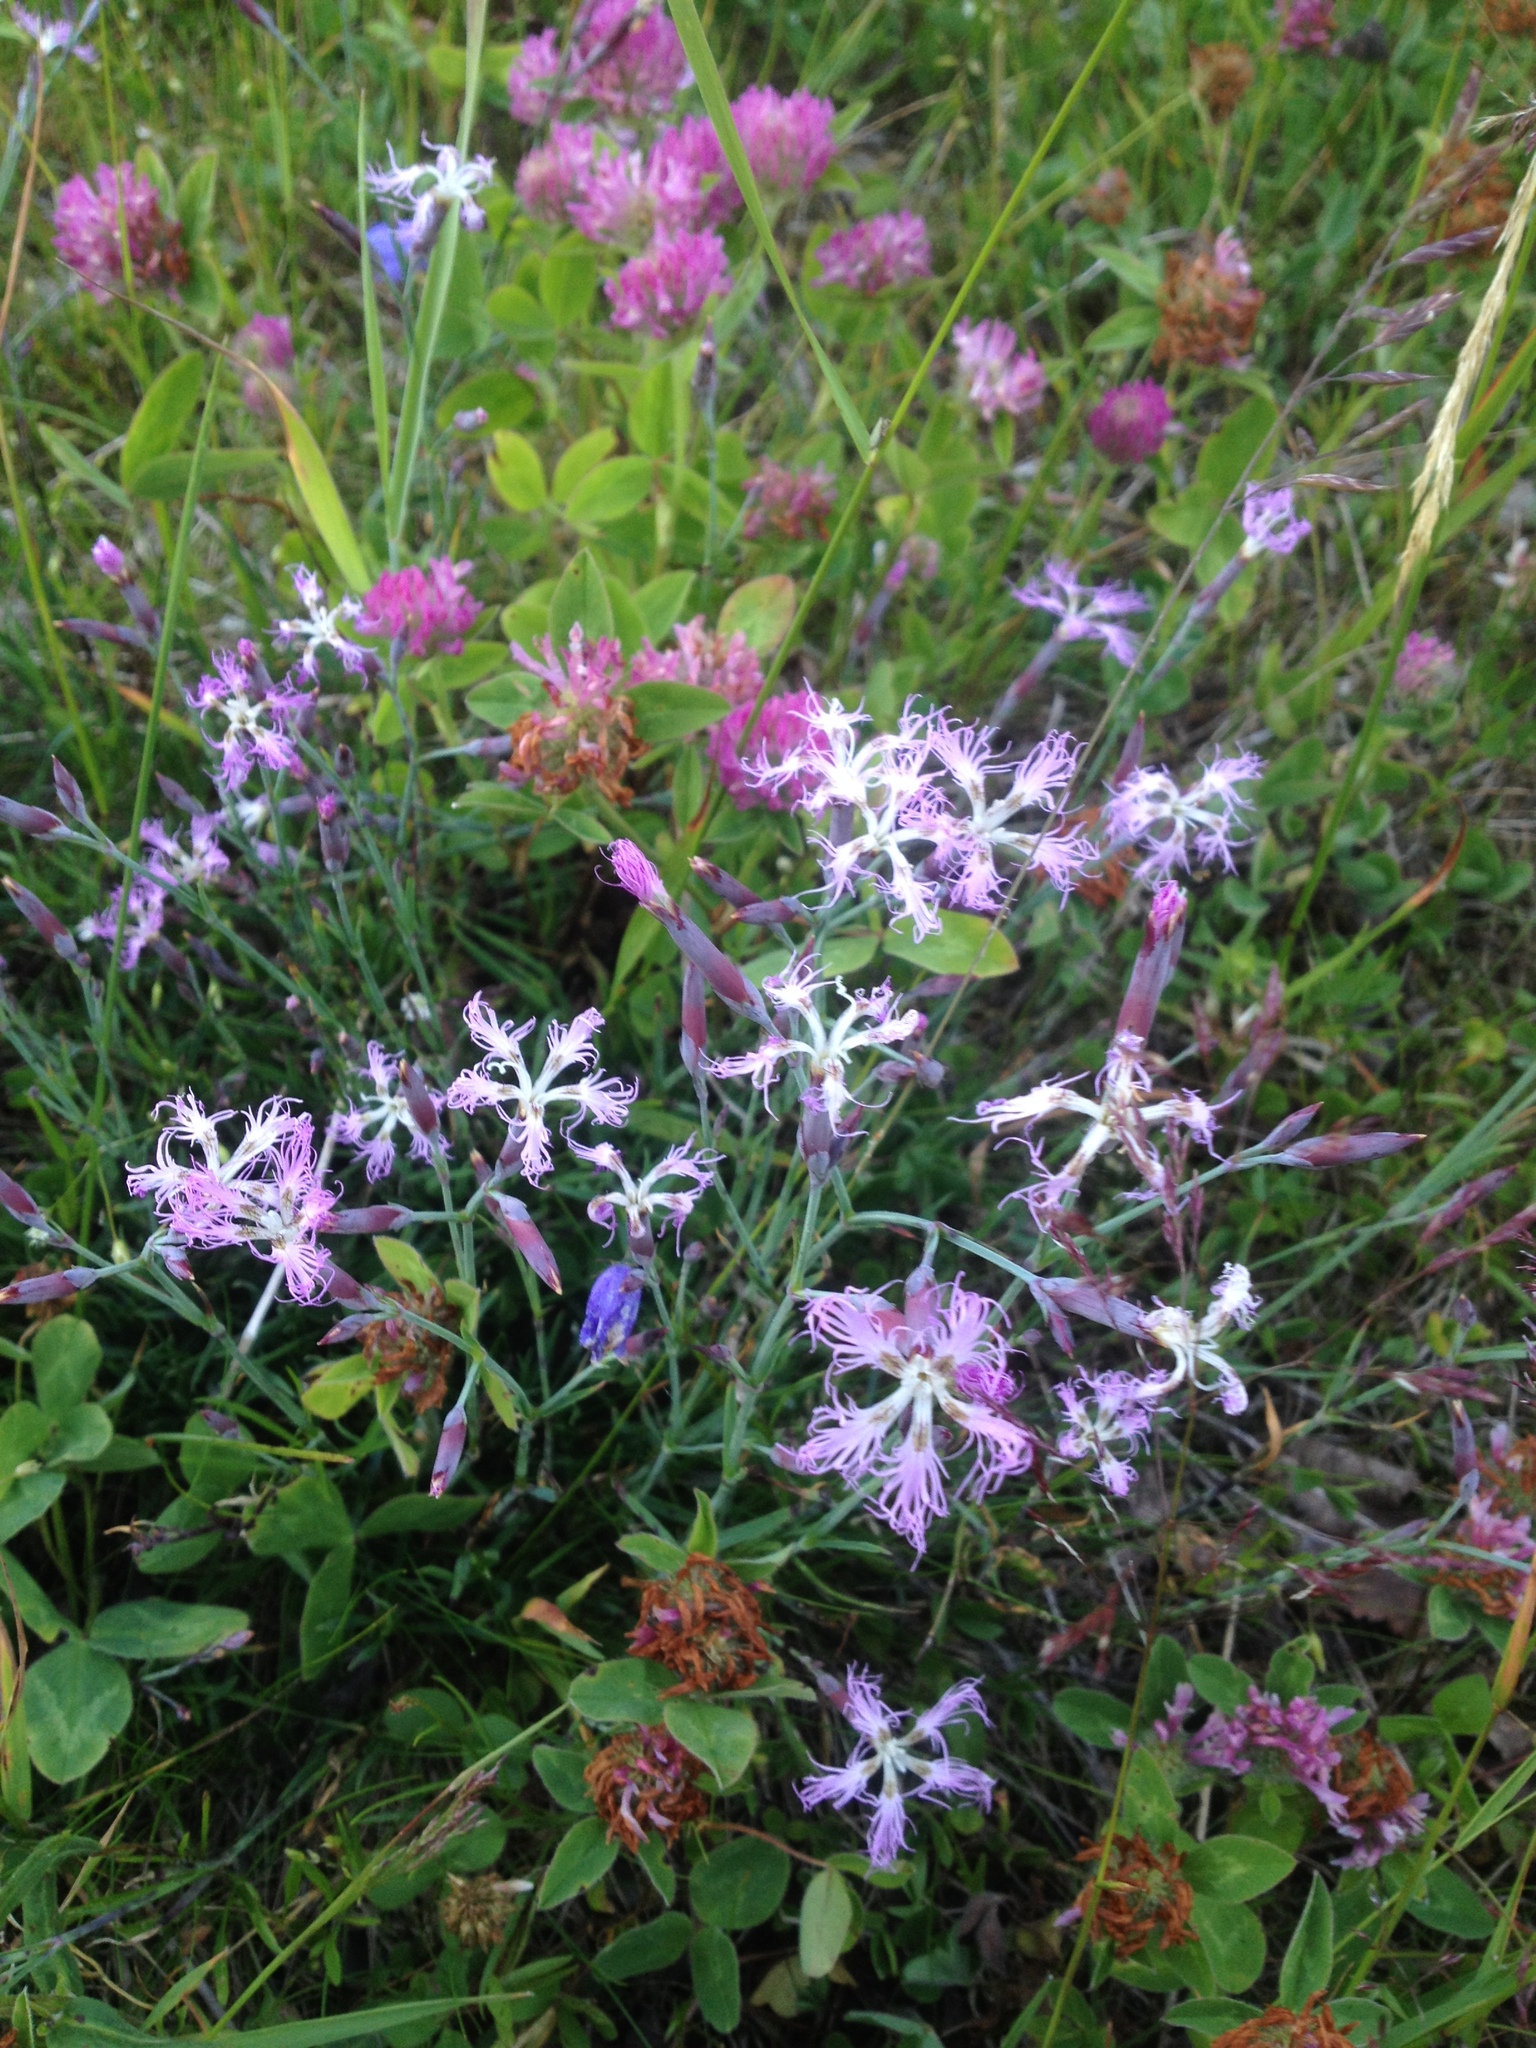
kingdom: Plantae
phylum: Tracheophyta
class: Magnoliopsida
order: Caryophyllales
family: Caryophyllaceae
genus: Dianthus
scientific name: Dianthus superbus
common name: Fringed pink
